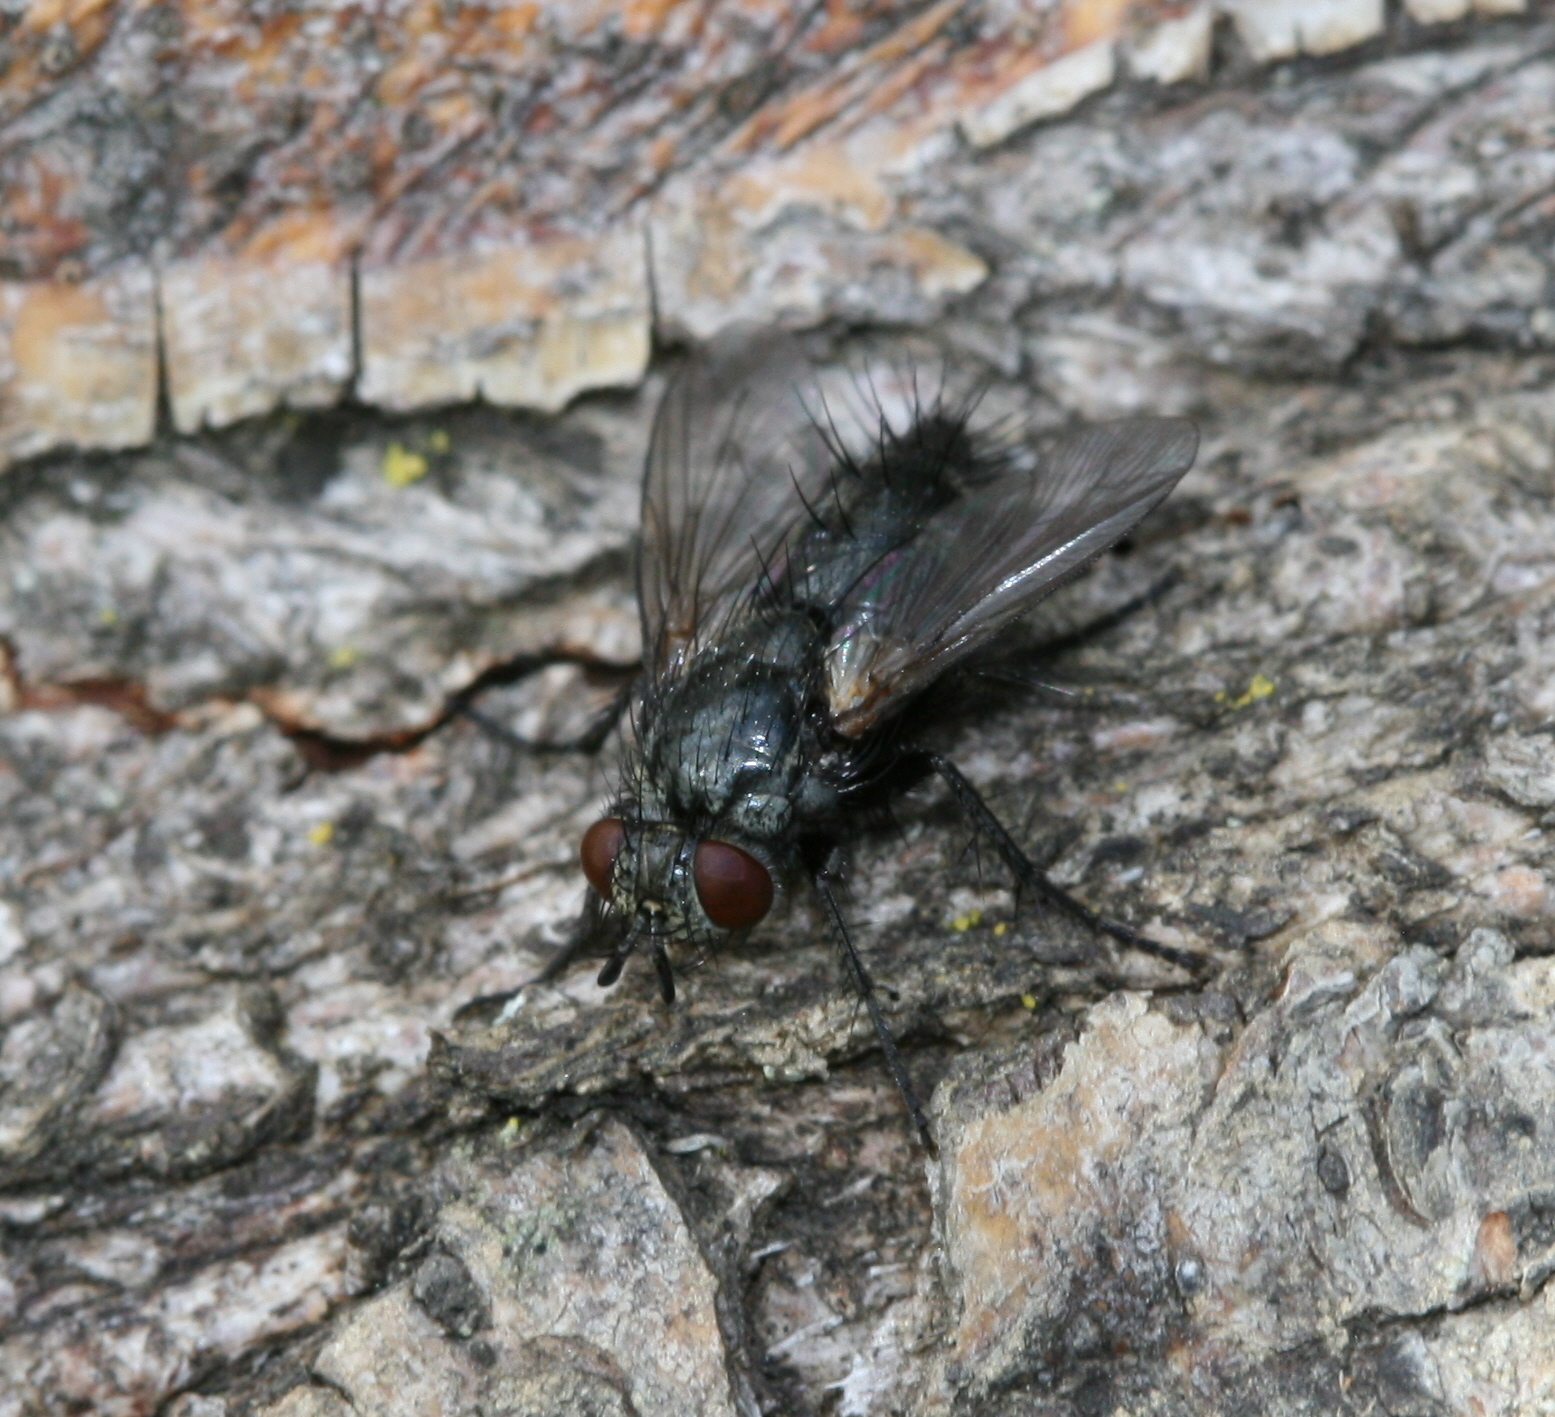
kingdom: Animalia
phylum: Arthropoda
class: Insecta
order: Diptera
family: Tachinidae
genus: Voria
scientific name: Voria ruralis
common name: Parasitic fly
